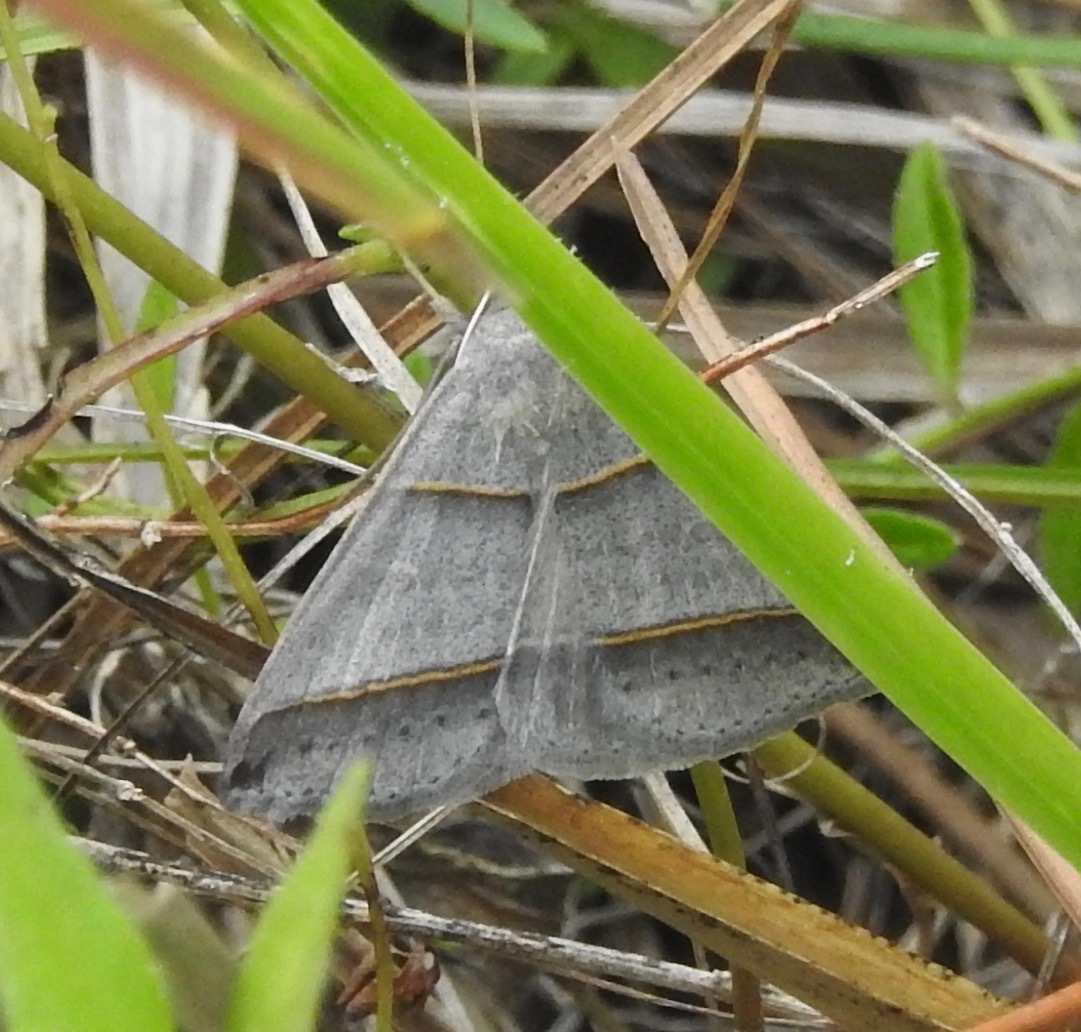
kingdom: Animalia
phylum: Arthropoda
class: Insecta
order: Lepidoptera
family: Erebidae
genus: Ptichodis
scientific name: Ptichodis vinculum
